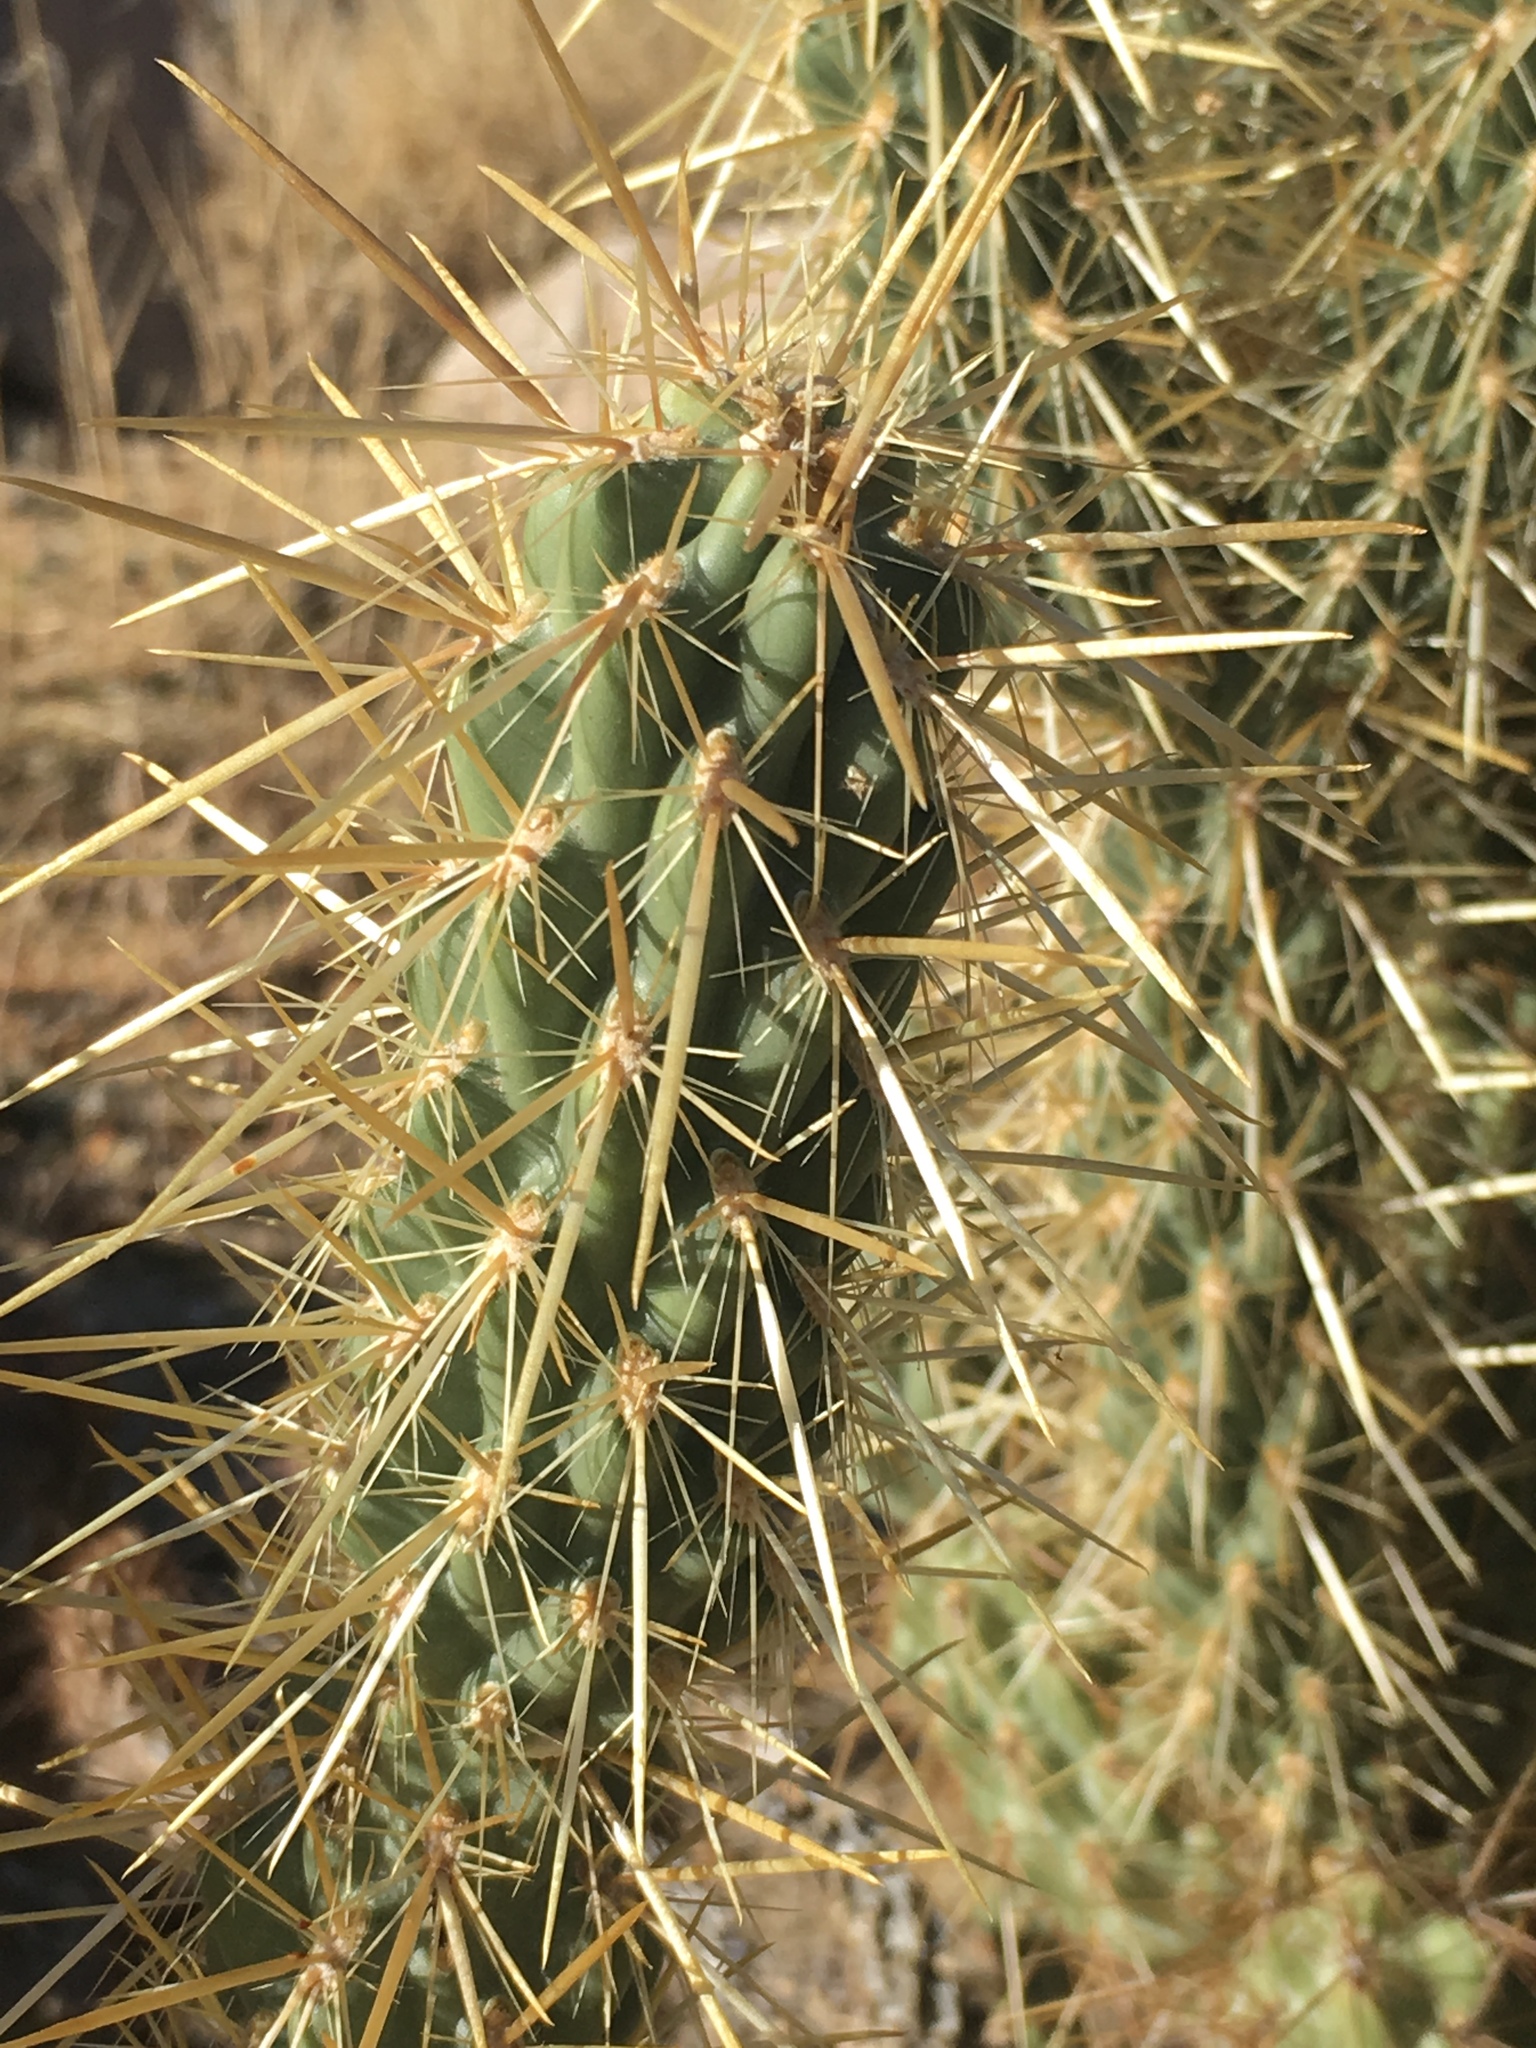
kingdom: Plantae
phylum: Tracheophyta
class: Magnoliopsida
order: Caryophyllales
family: Cactaceae
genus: Cylindropuntia
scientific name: Cylindropuntia ganderi
